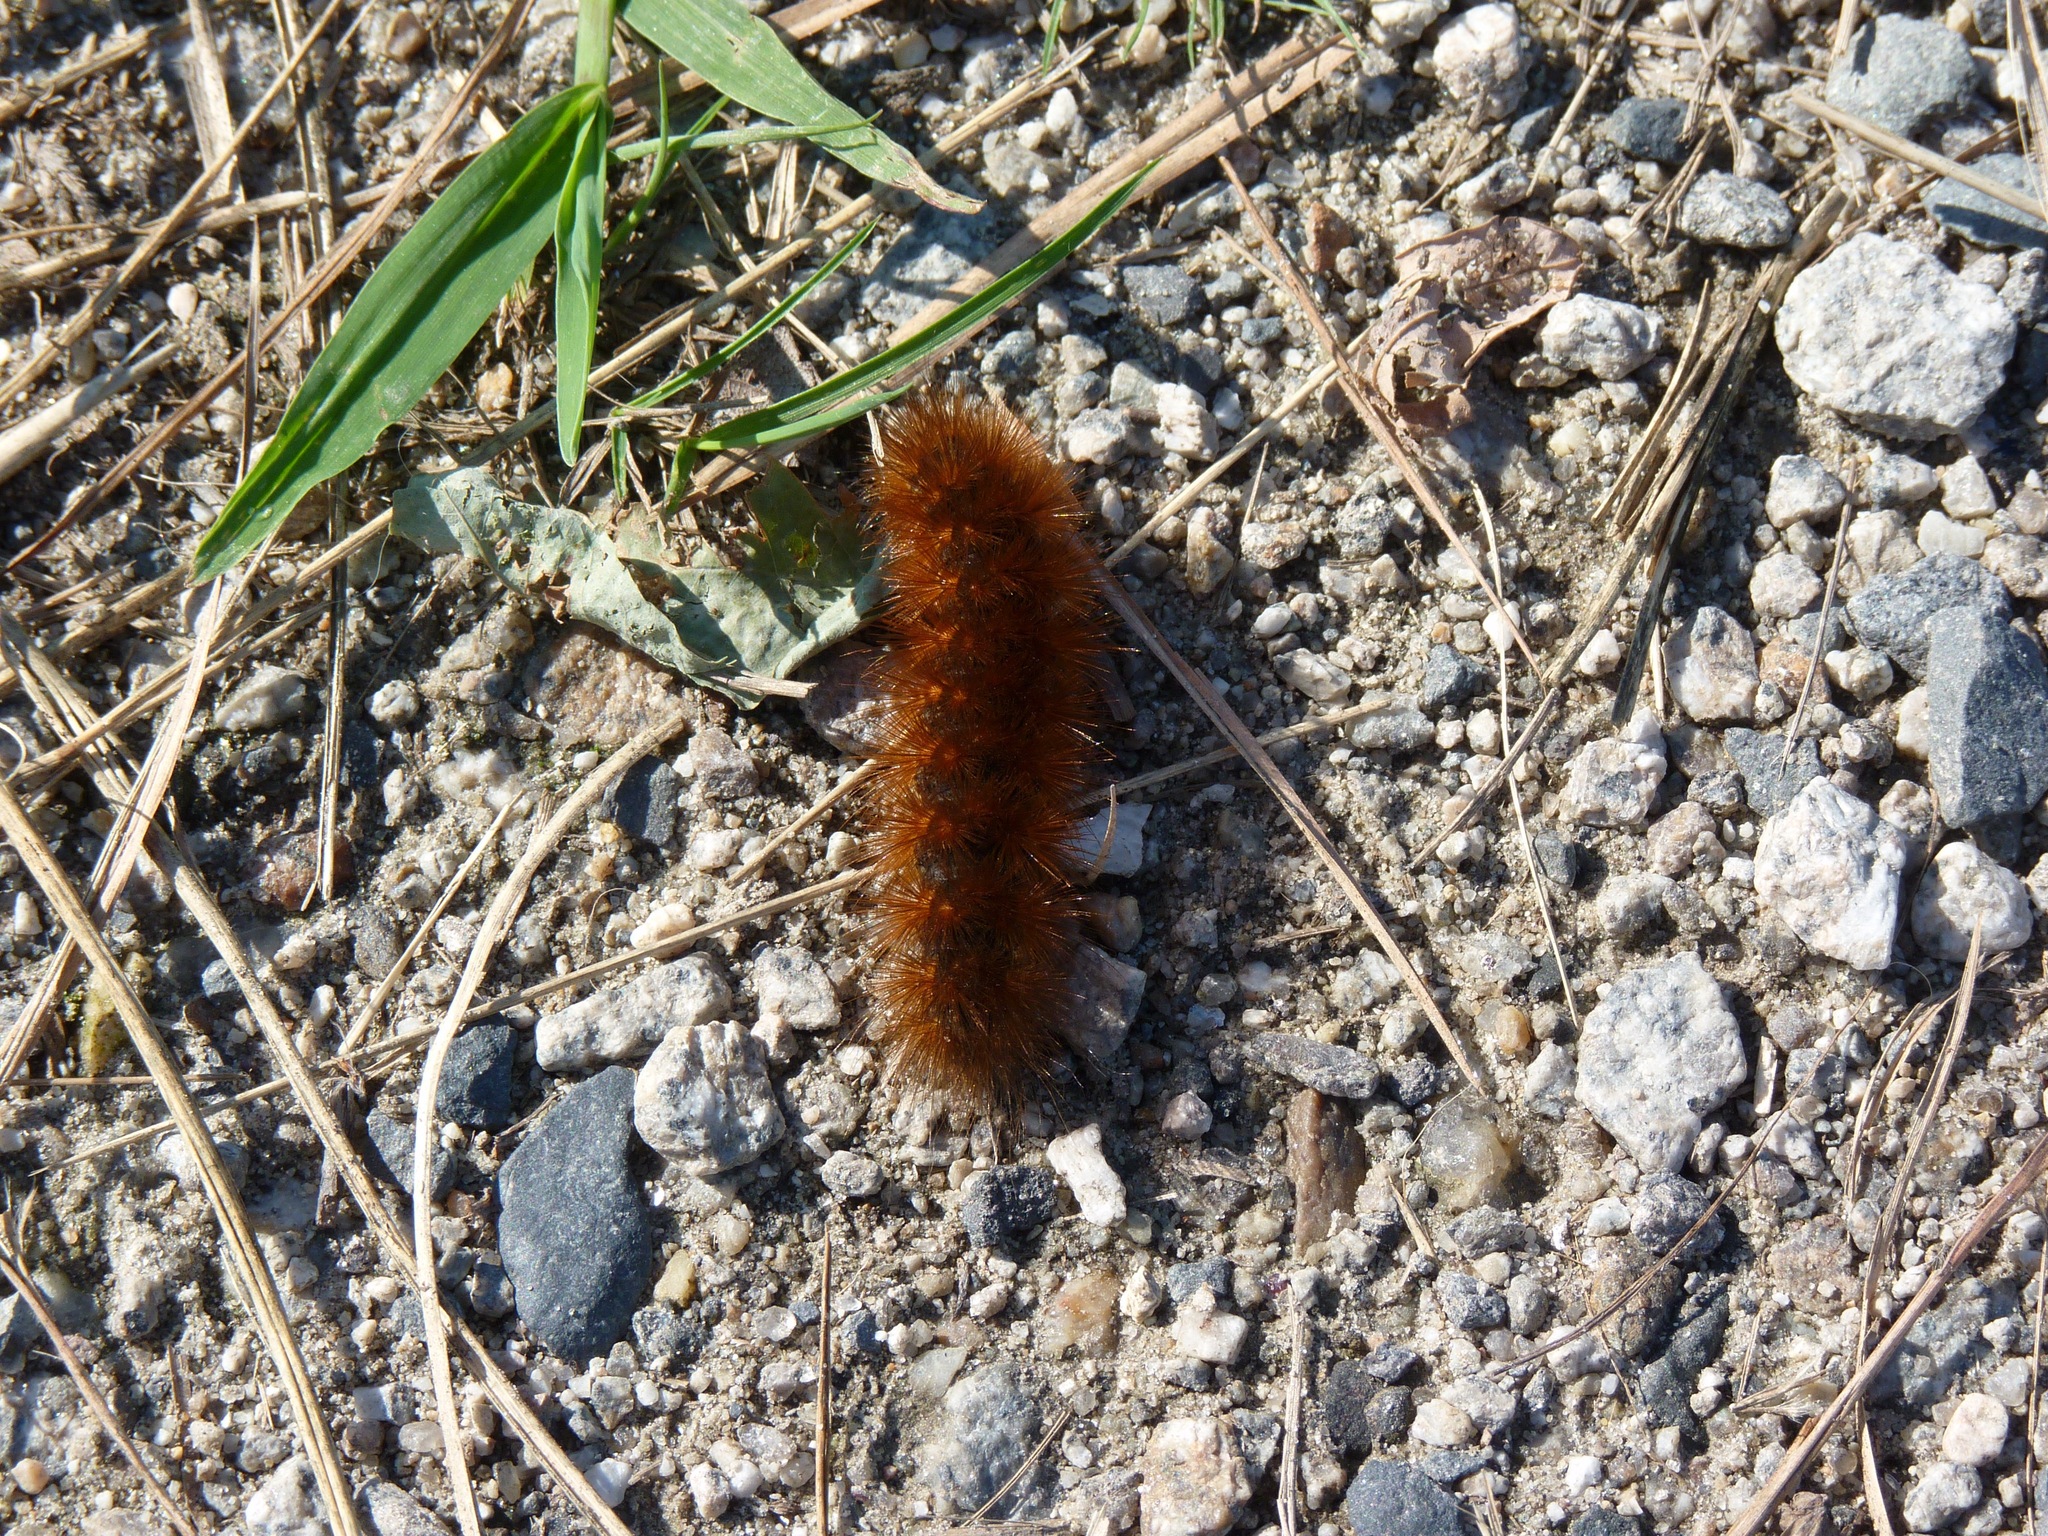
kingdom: Animalia
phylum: Arthropoda
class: Insecta
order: Lepidoptera
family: Erebidae
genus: Estigmene
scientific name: Estigmene acrea
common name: Salt marsh moth
